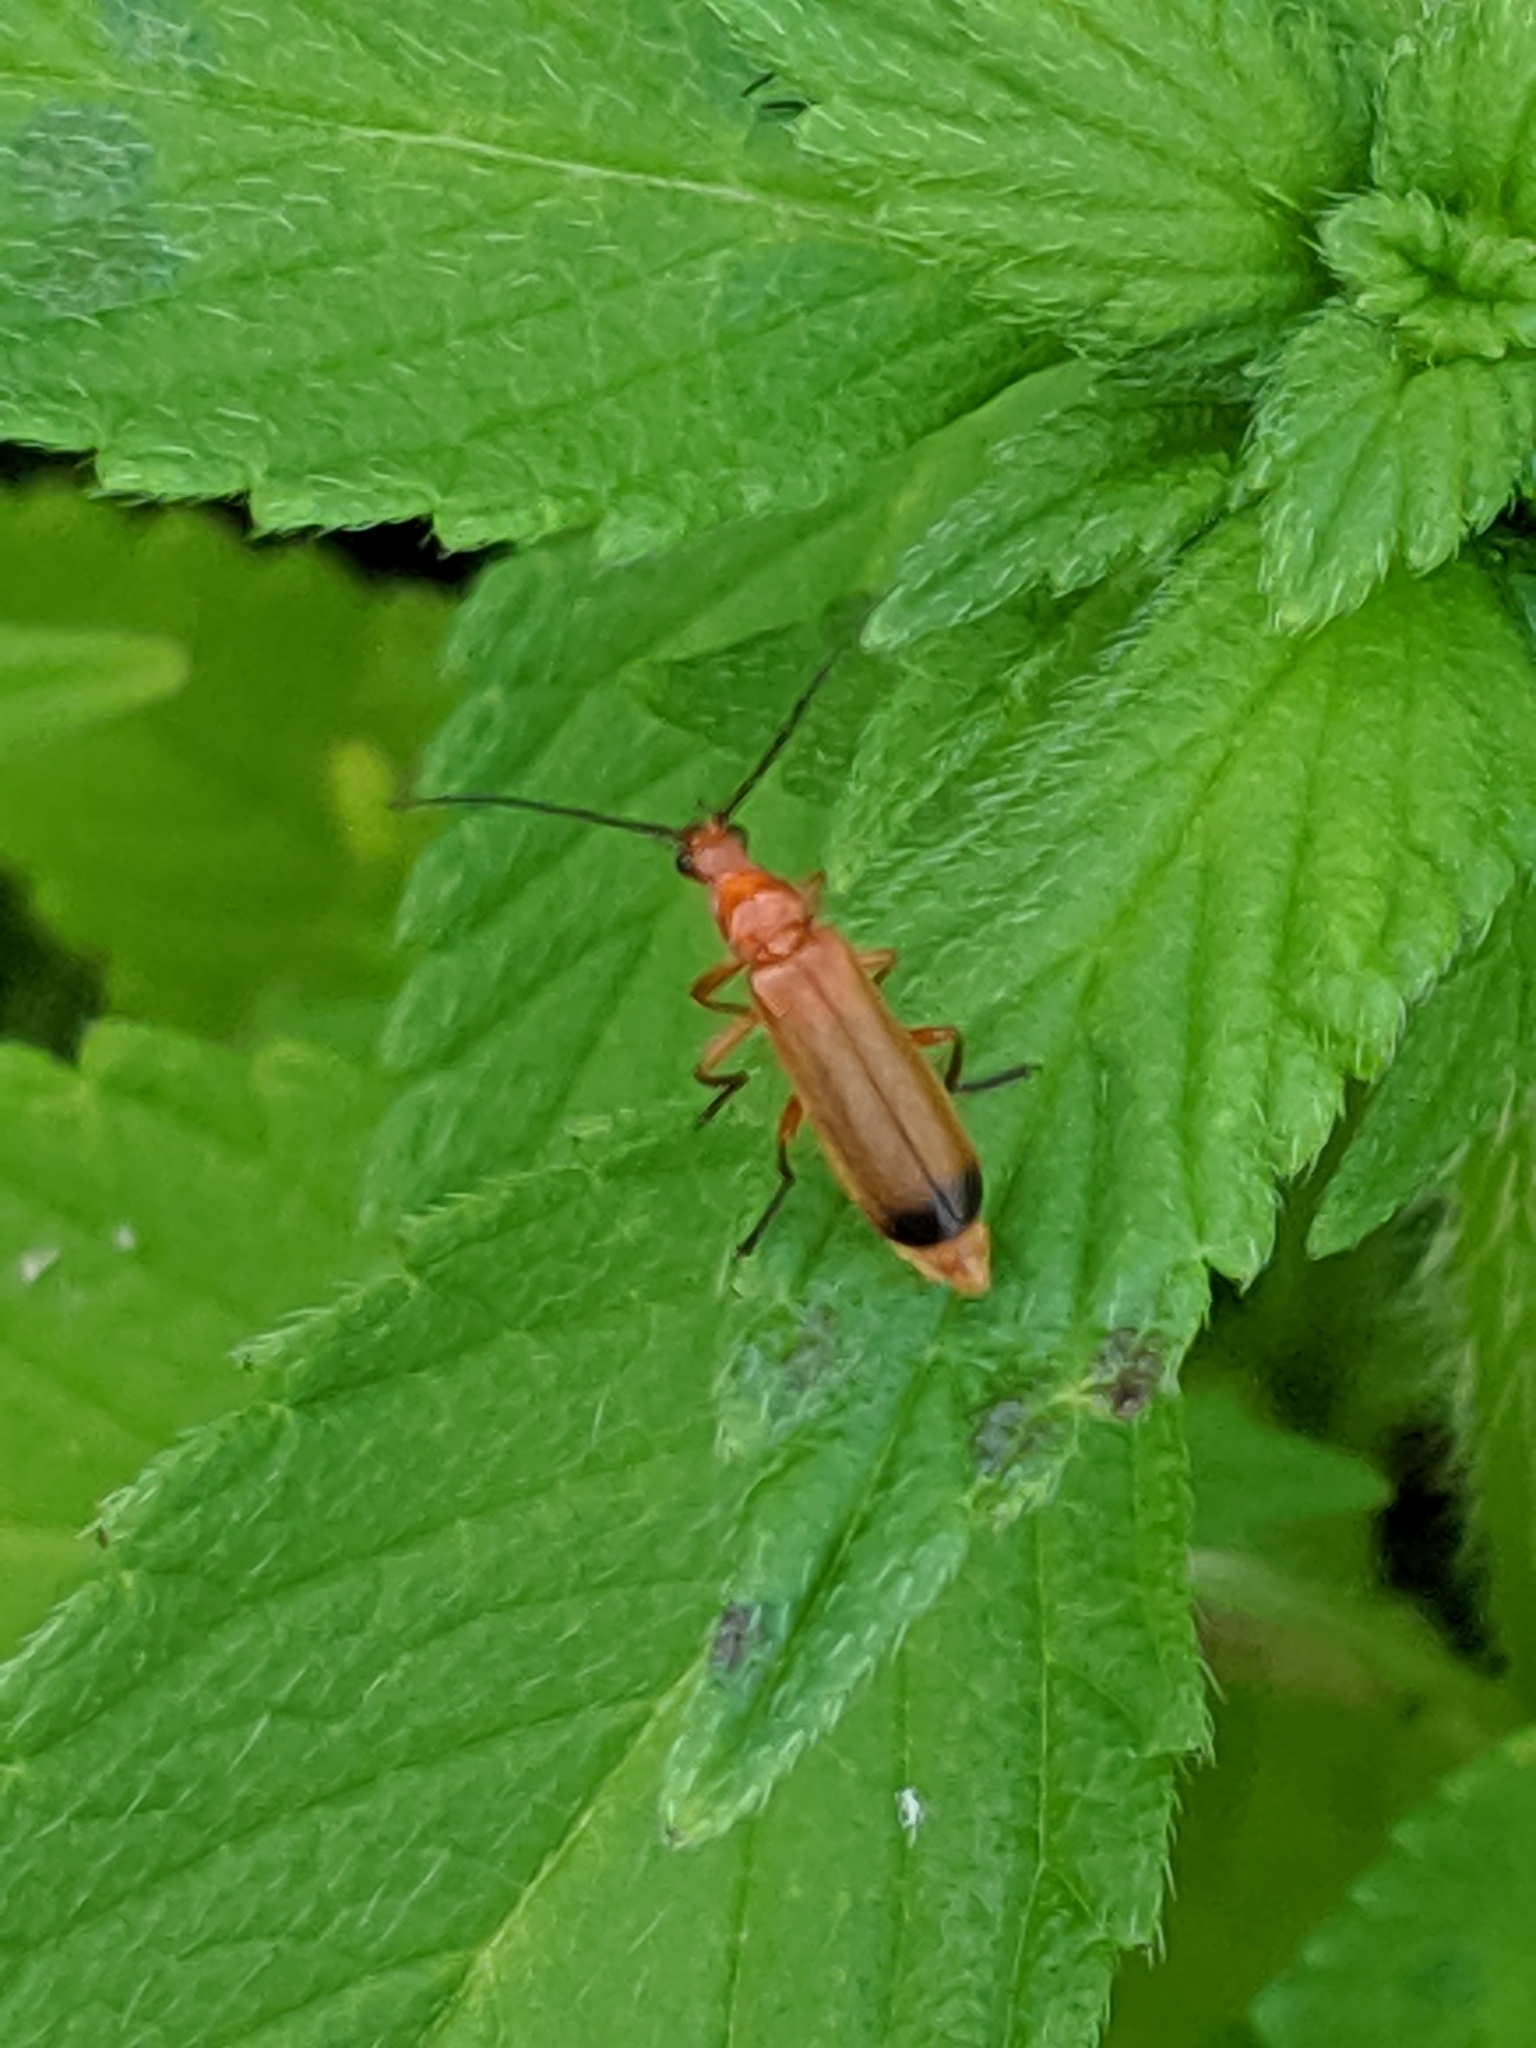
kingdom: Animalia
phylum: Arthropoda
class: Insecta
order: Coleoptera
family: Cantharidae
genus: Rhagonycha
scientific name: Rhagonycha fulva
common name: Common red soldier beetle
